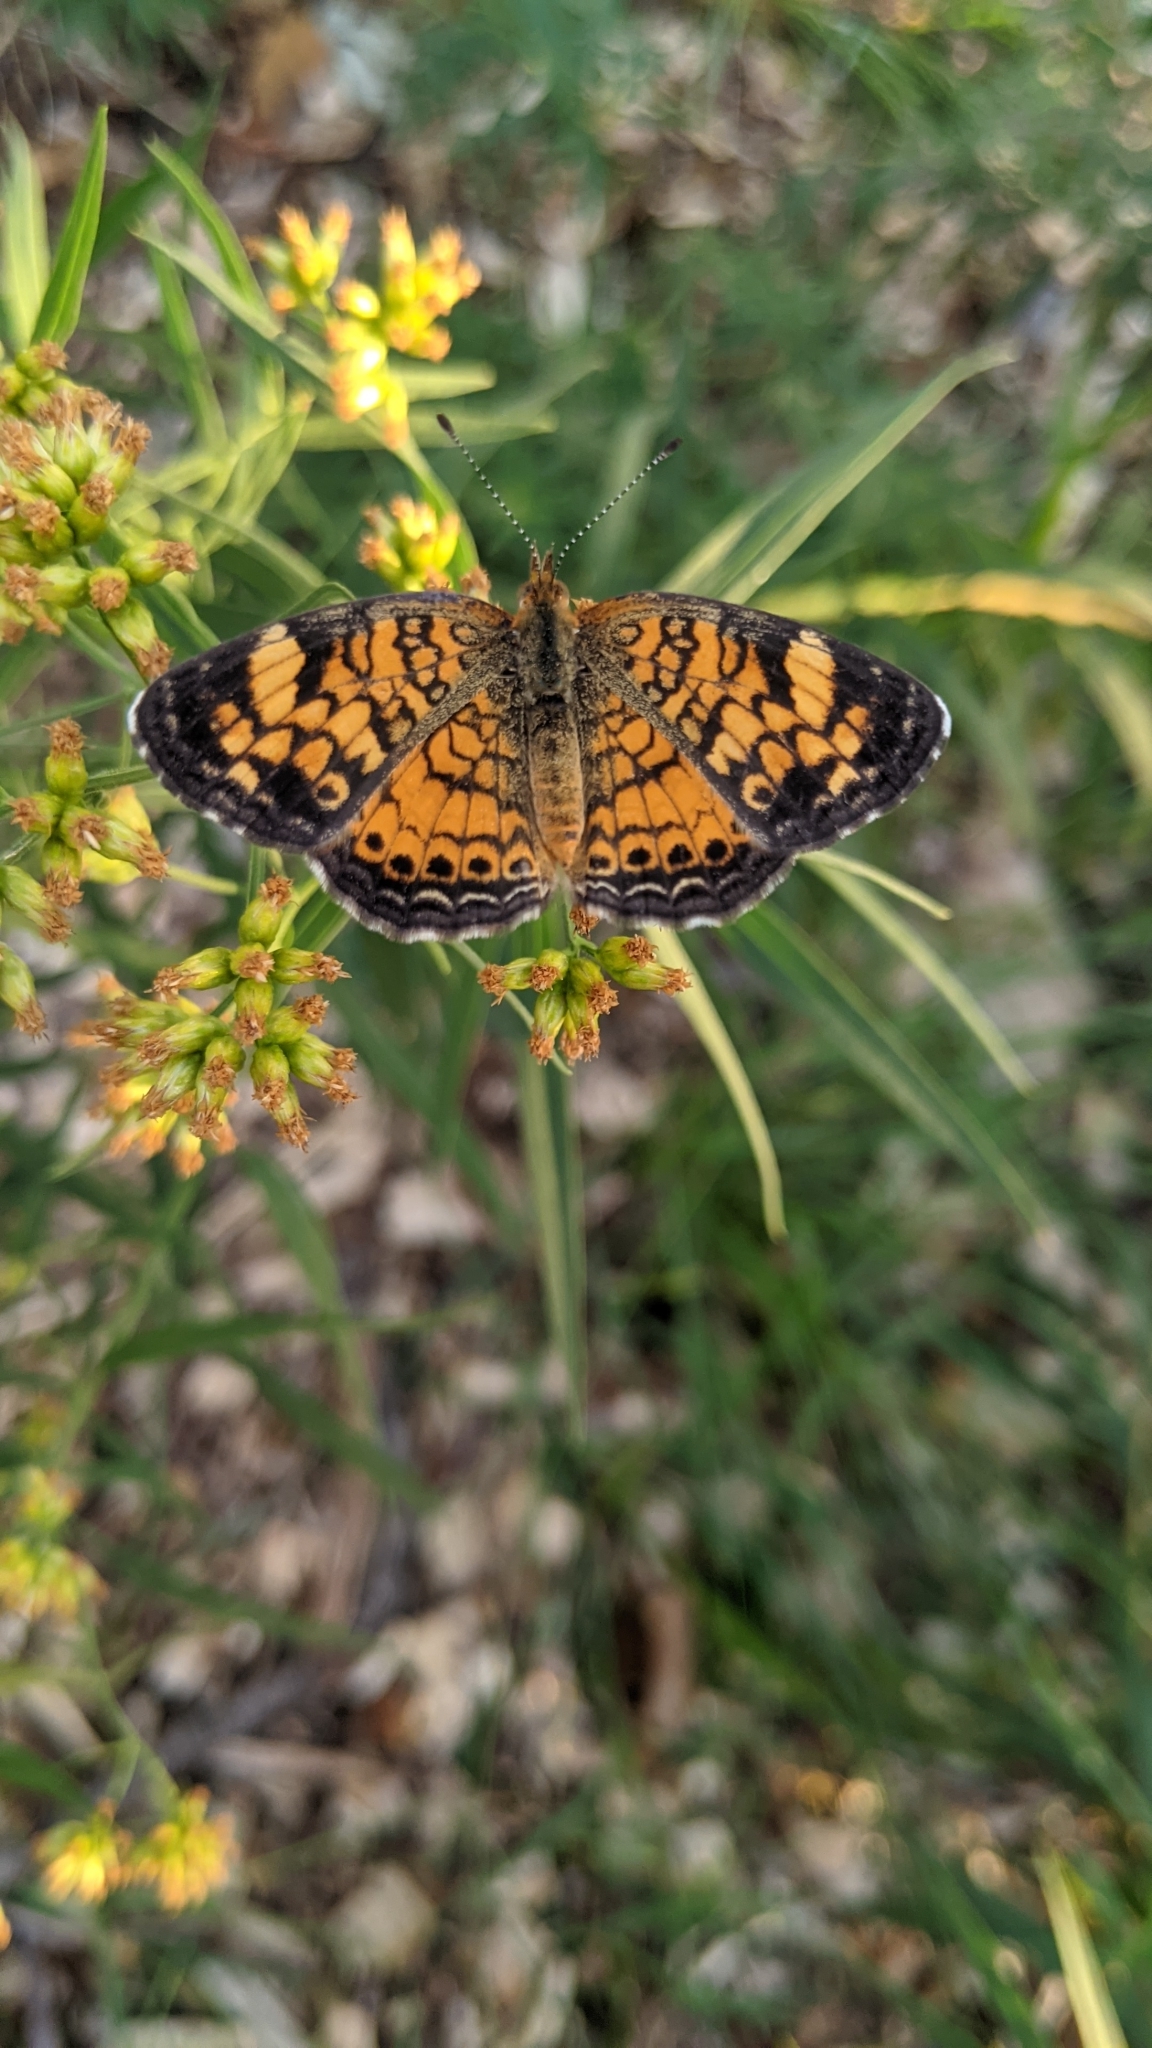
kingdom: Animalia
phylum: Arthropoda
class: Insecta
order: Lepidoptera
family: Nymphalidae
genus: Phyciodes
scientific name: Phyciodes tharos
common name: Pearl crescent
